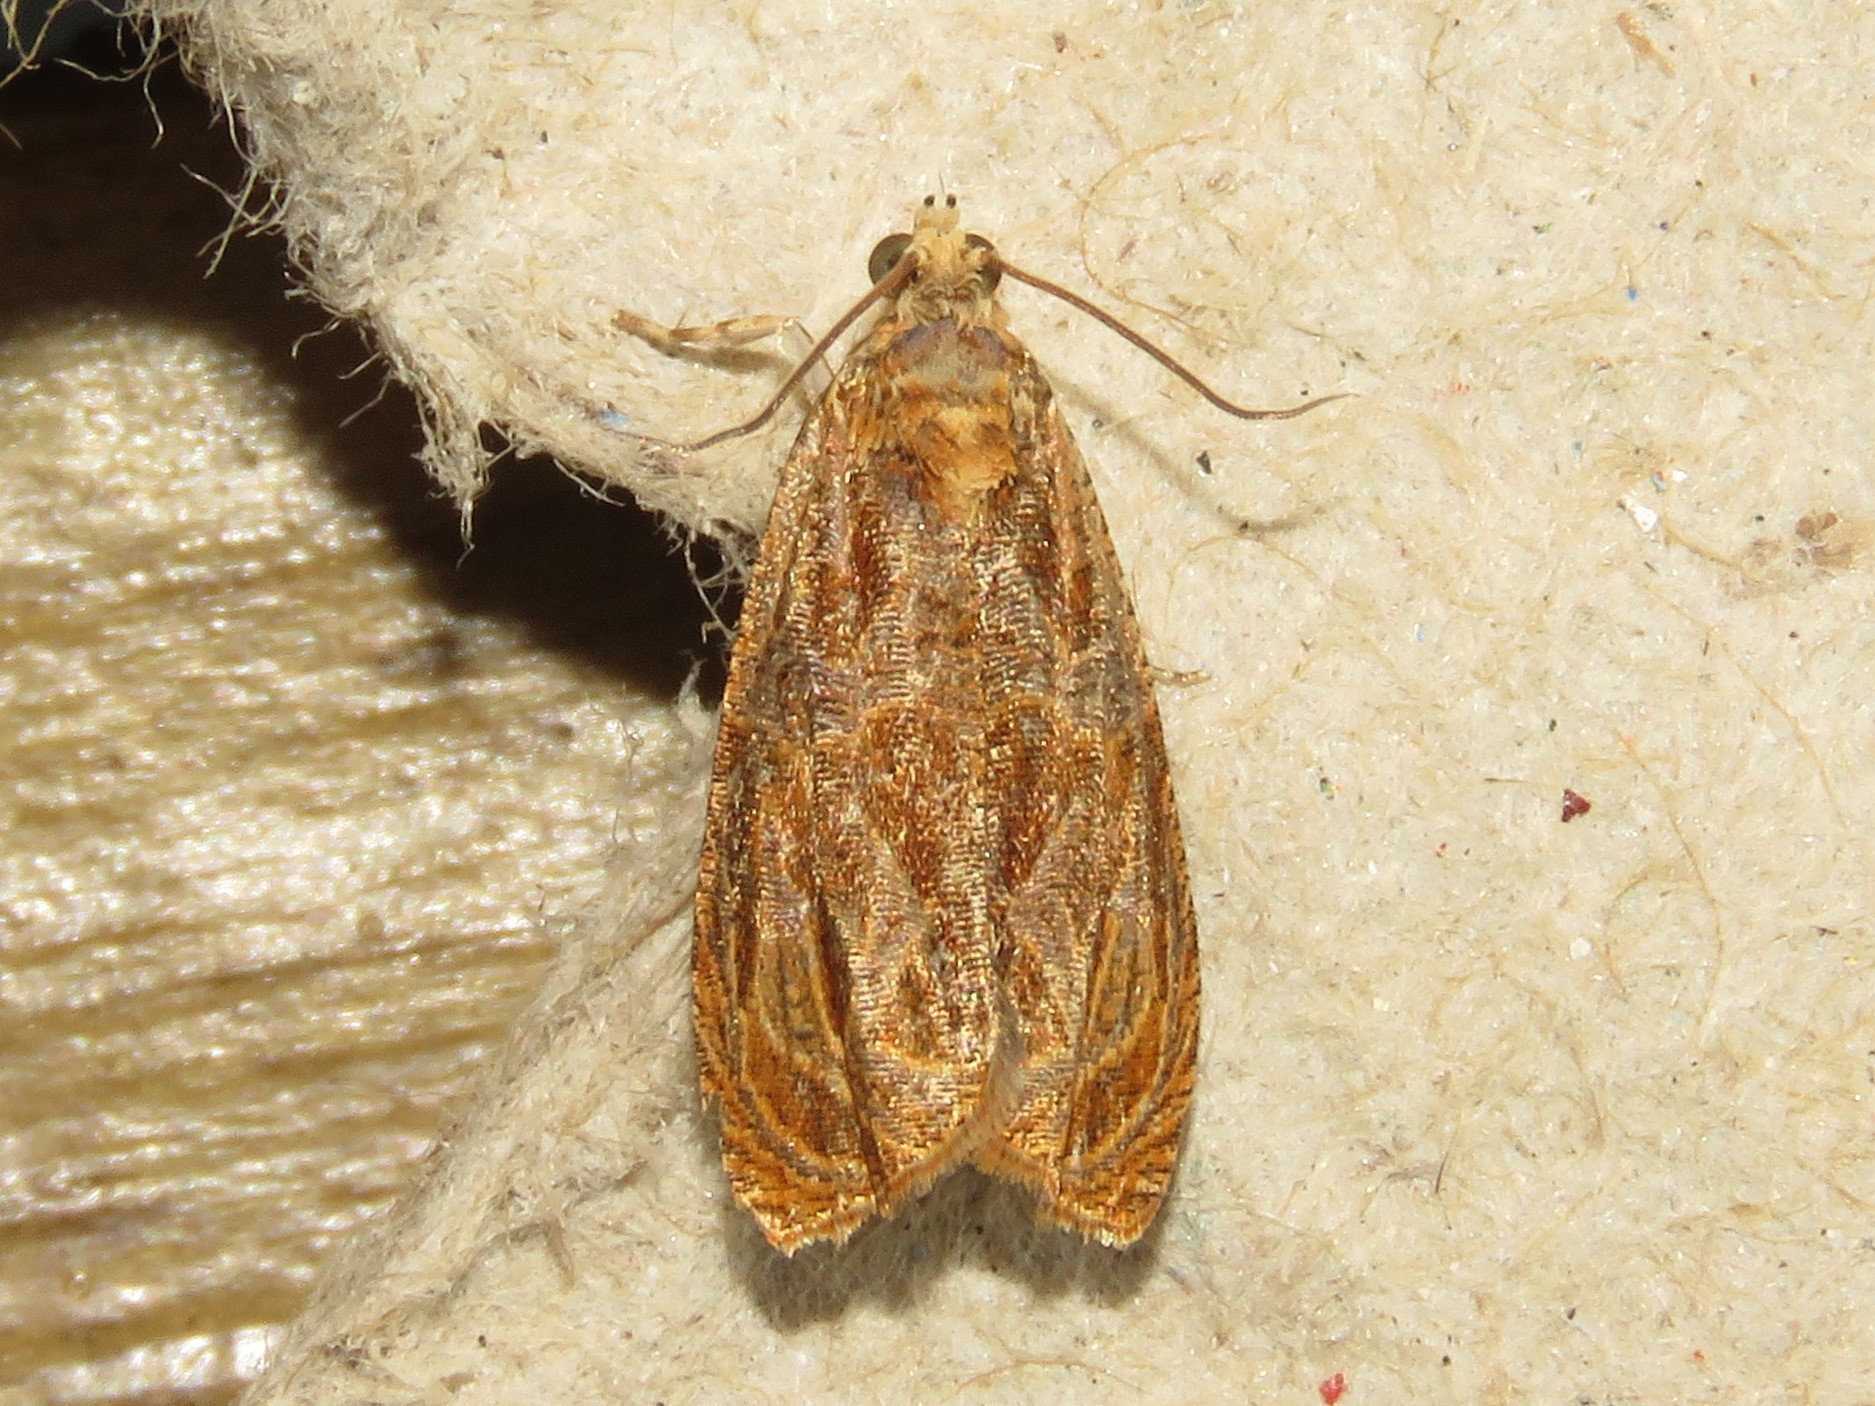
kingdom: Animalia
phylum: Arthropoda
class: Insecta
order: Lepidoptera
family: Tortricidae
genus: Olethreutes
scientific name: Olethreutes nitidana
